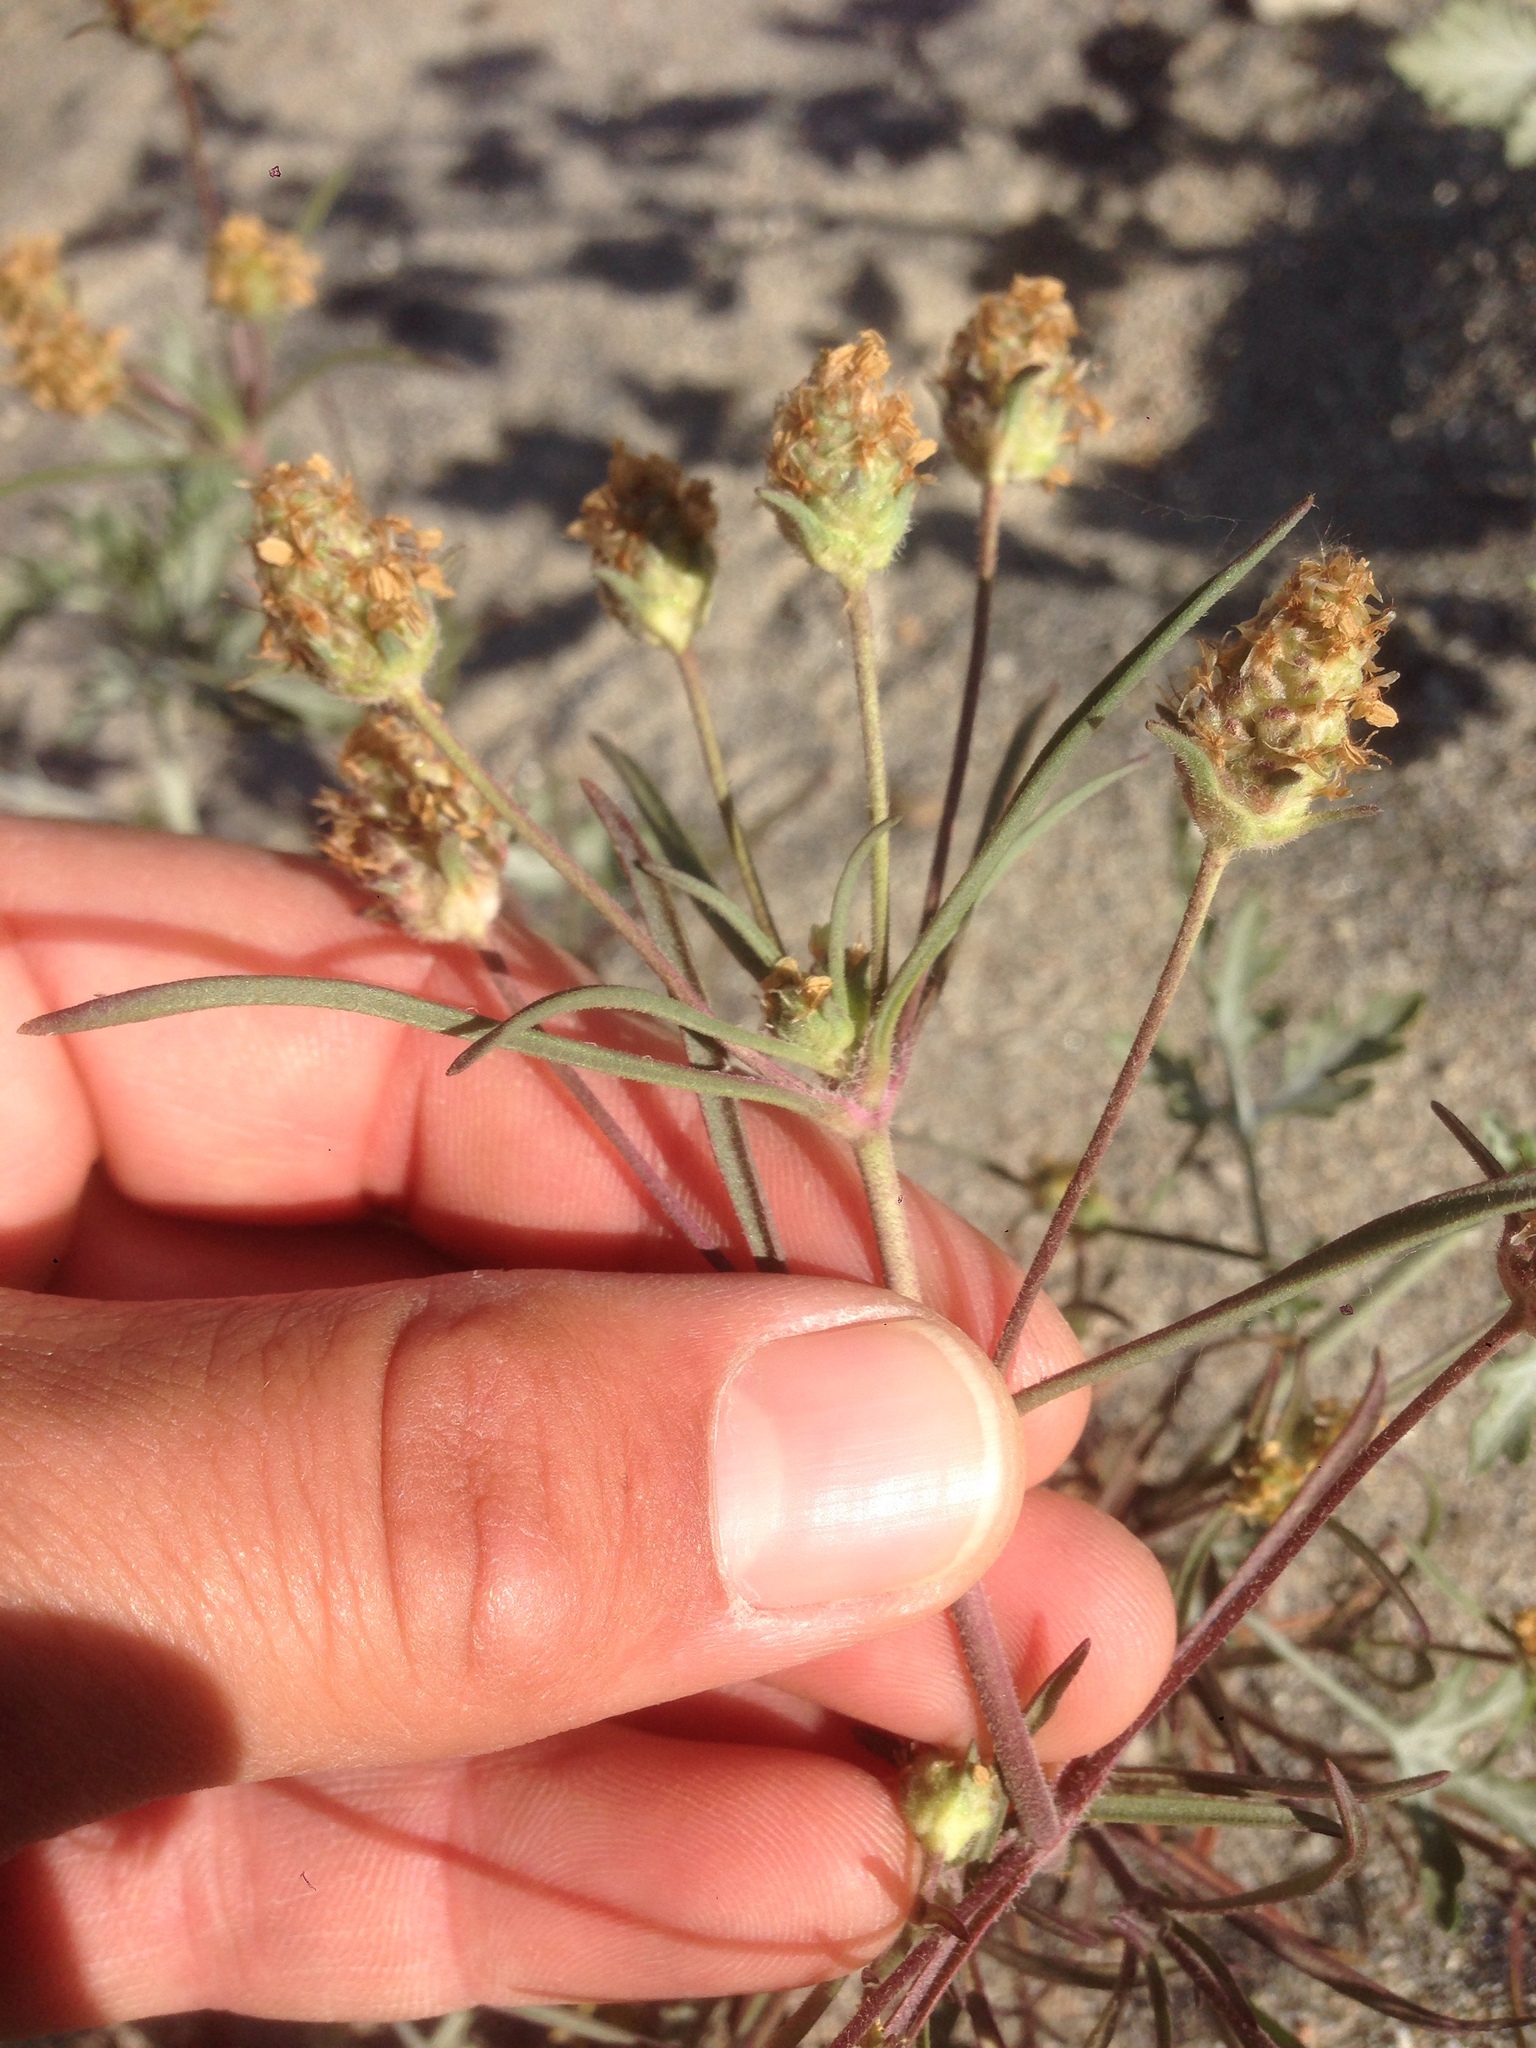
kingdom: Plantae
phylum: Tracheophyta
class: Magnoliopsida
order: Lamiales
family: Plantaginaceae
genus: Plantago
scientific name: Plantago arenaria
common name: Branched plantain
